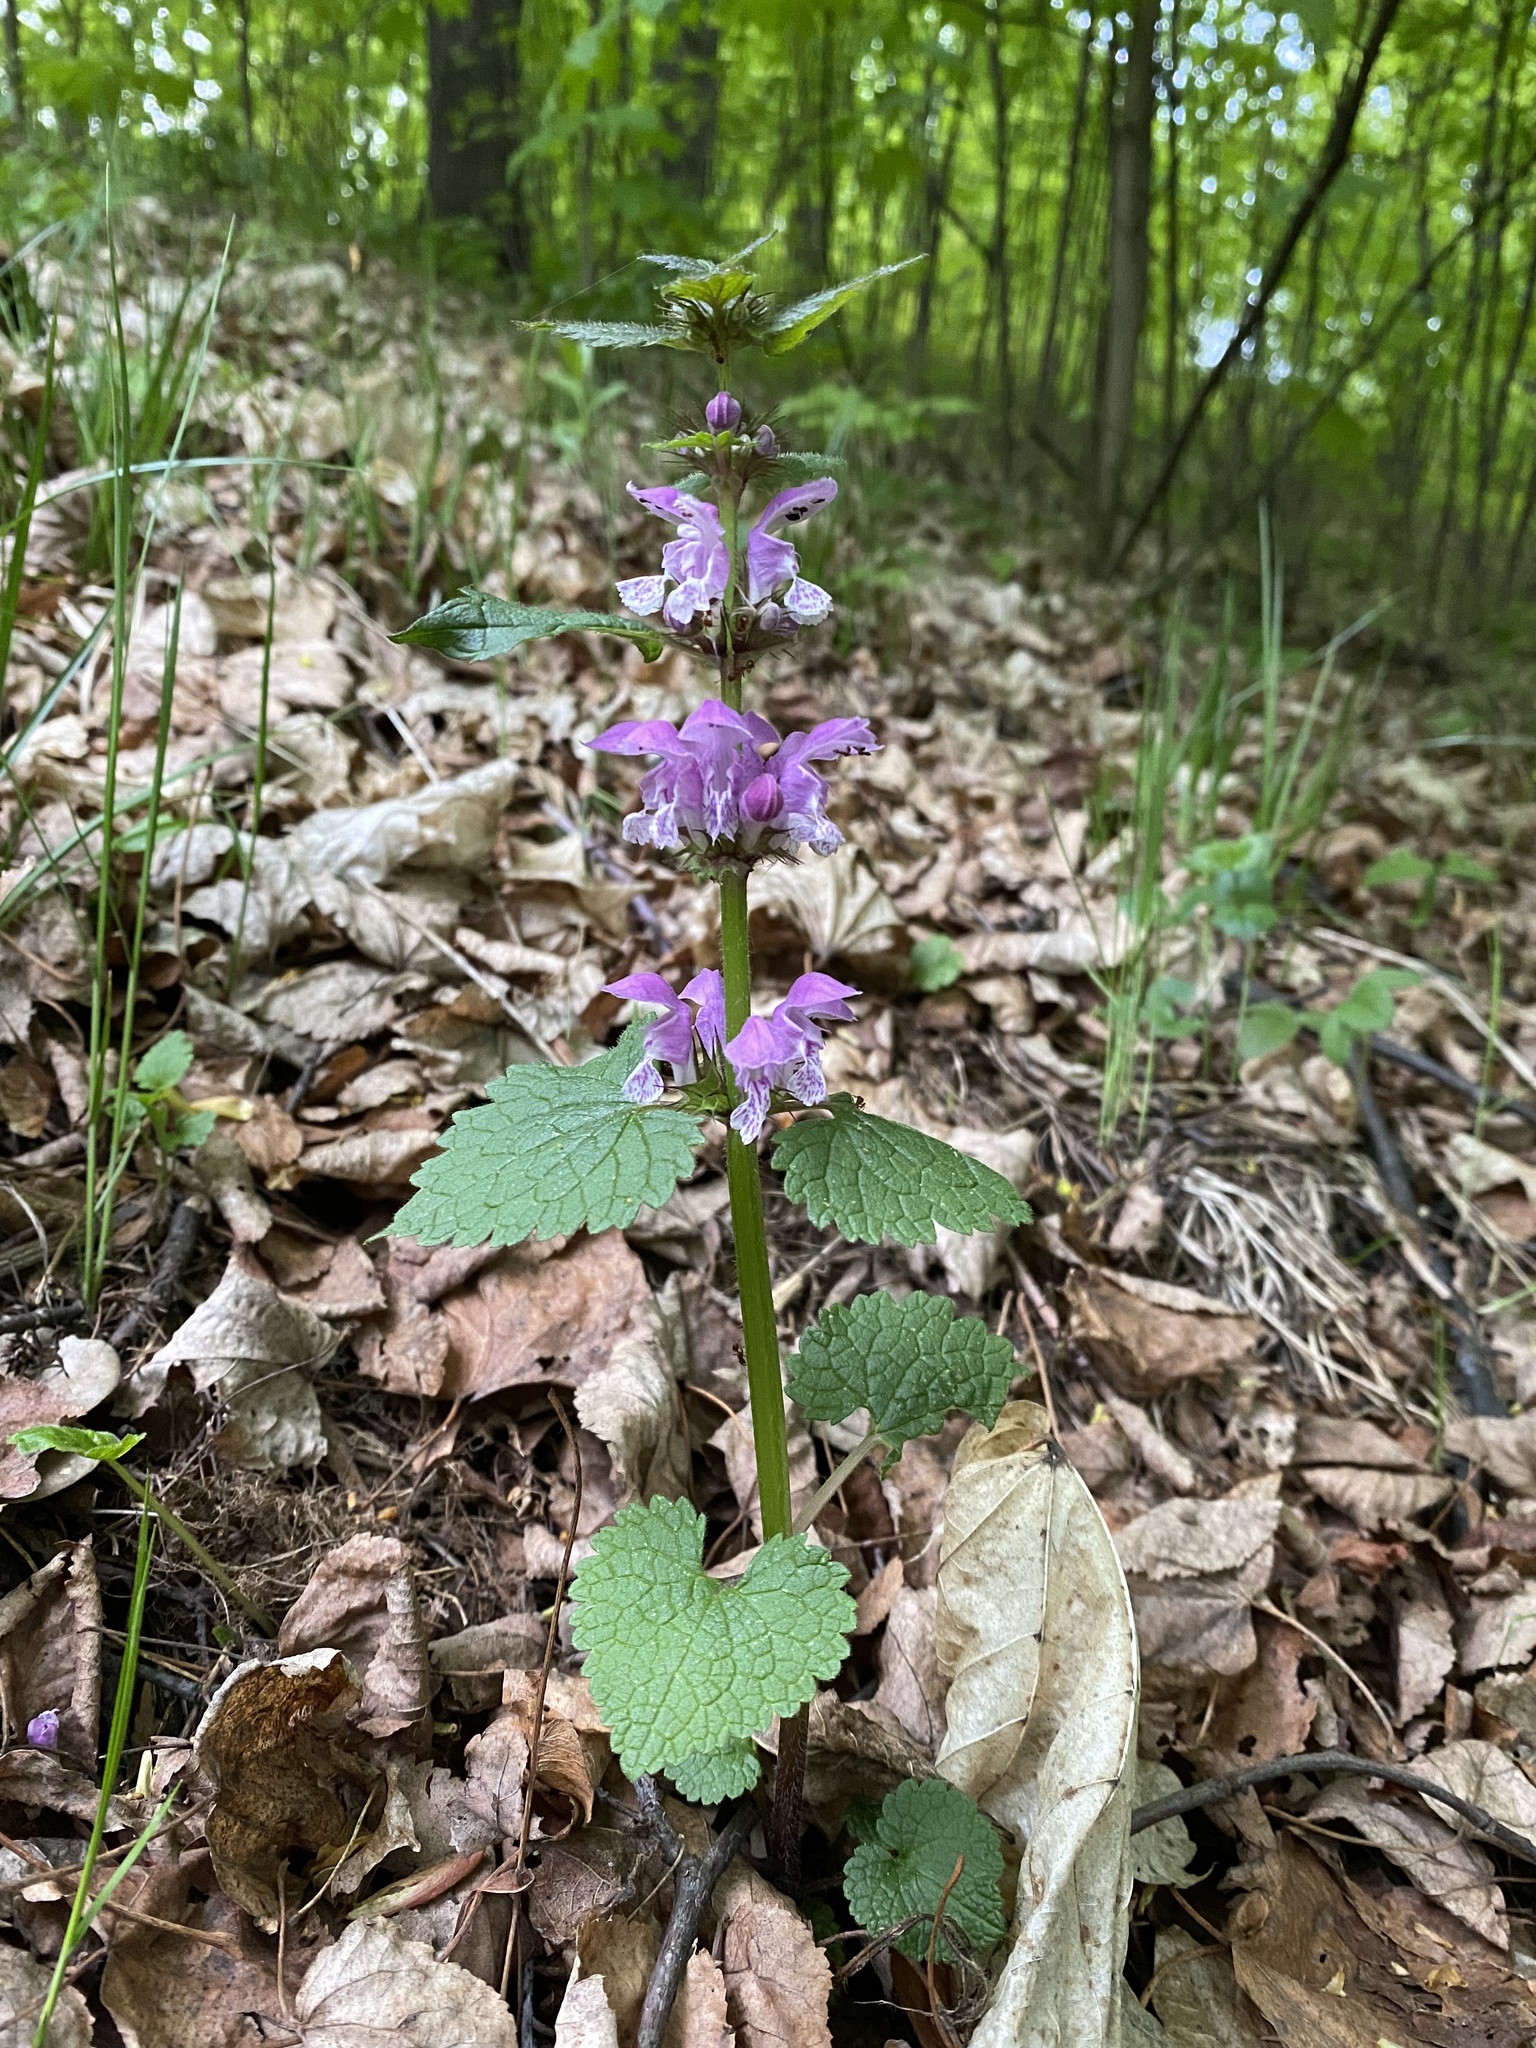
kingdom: Plantae
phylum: Tracheophyta
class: Magnoliopsida
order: Lamiales
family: Lamiaceae
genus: Lamium
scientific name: Lamium maculatum
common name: Spotted dead-nettle
